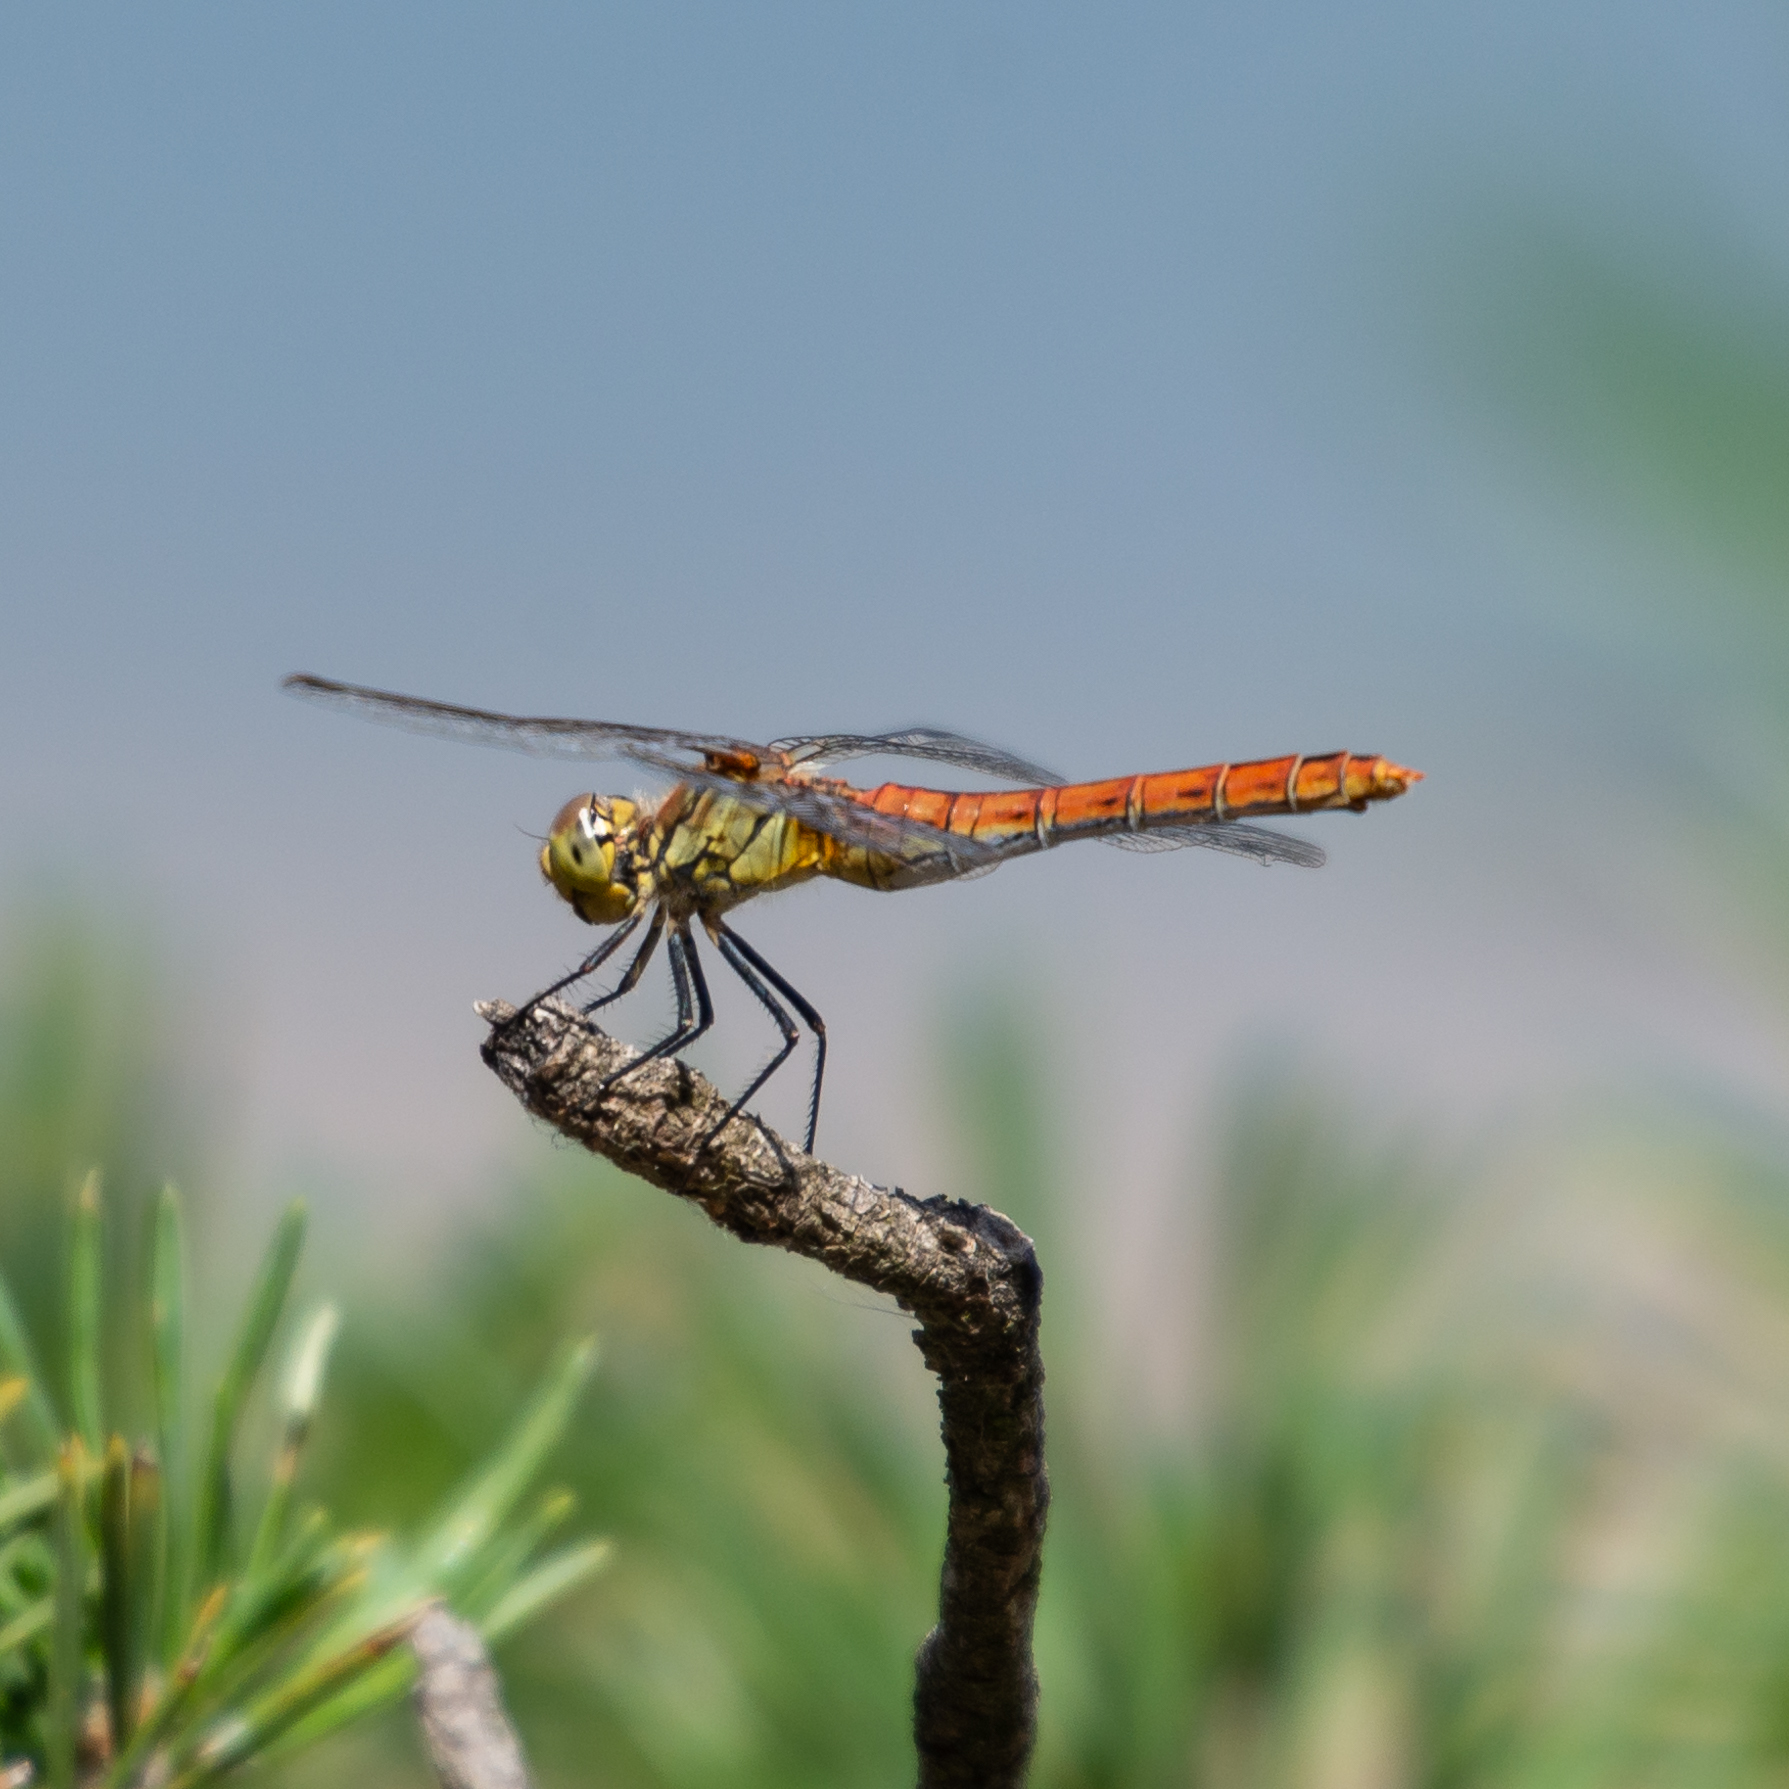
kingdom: Animalia
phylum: Arthropoda
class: Insecta
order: Odonata
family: Libellulidae
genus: Sympetrum
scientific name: Sympetrum sanguineum
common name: Ruddy darter
